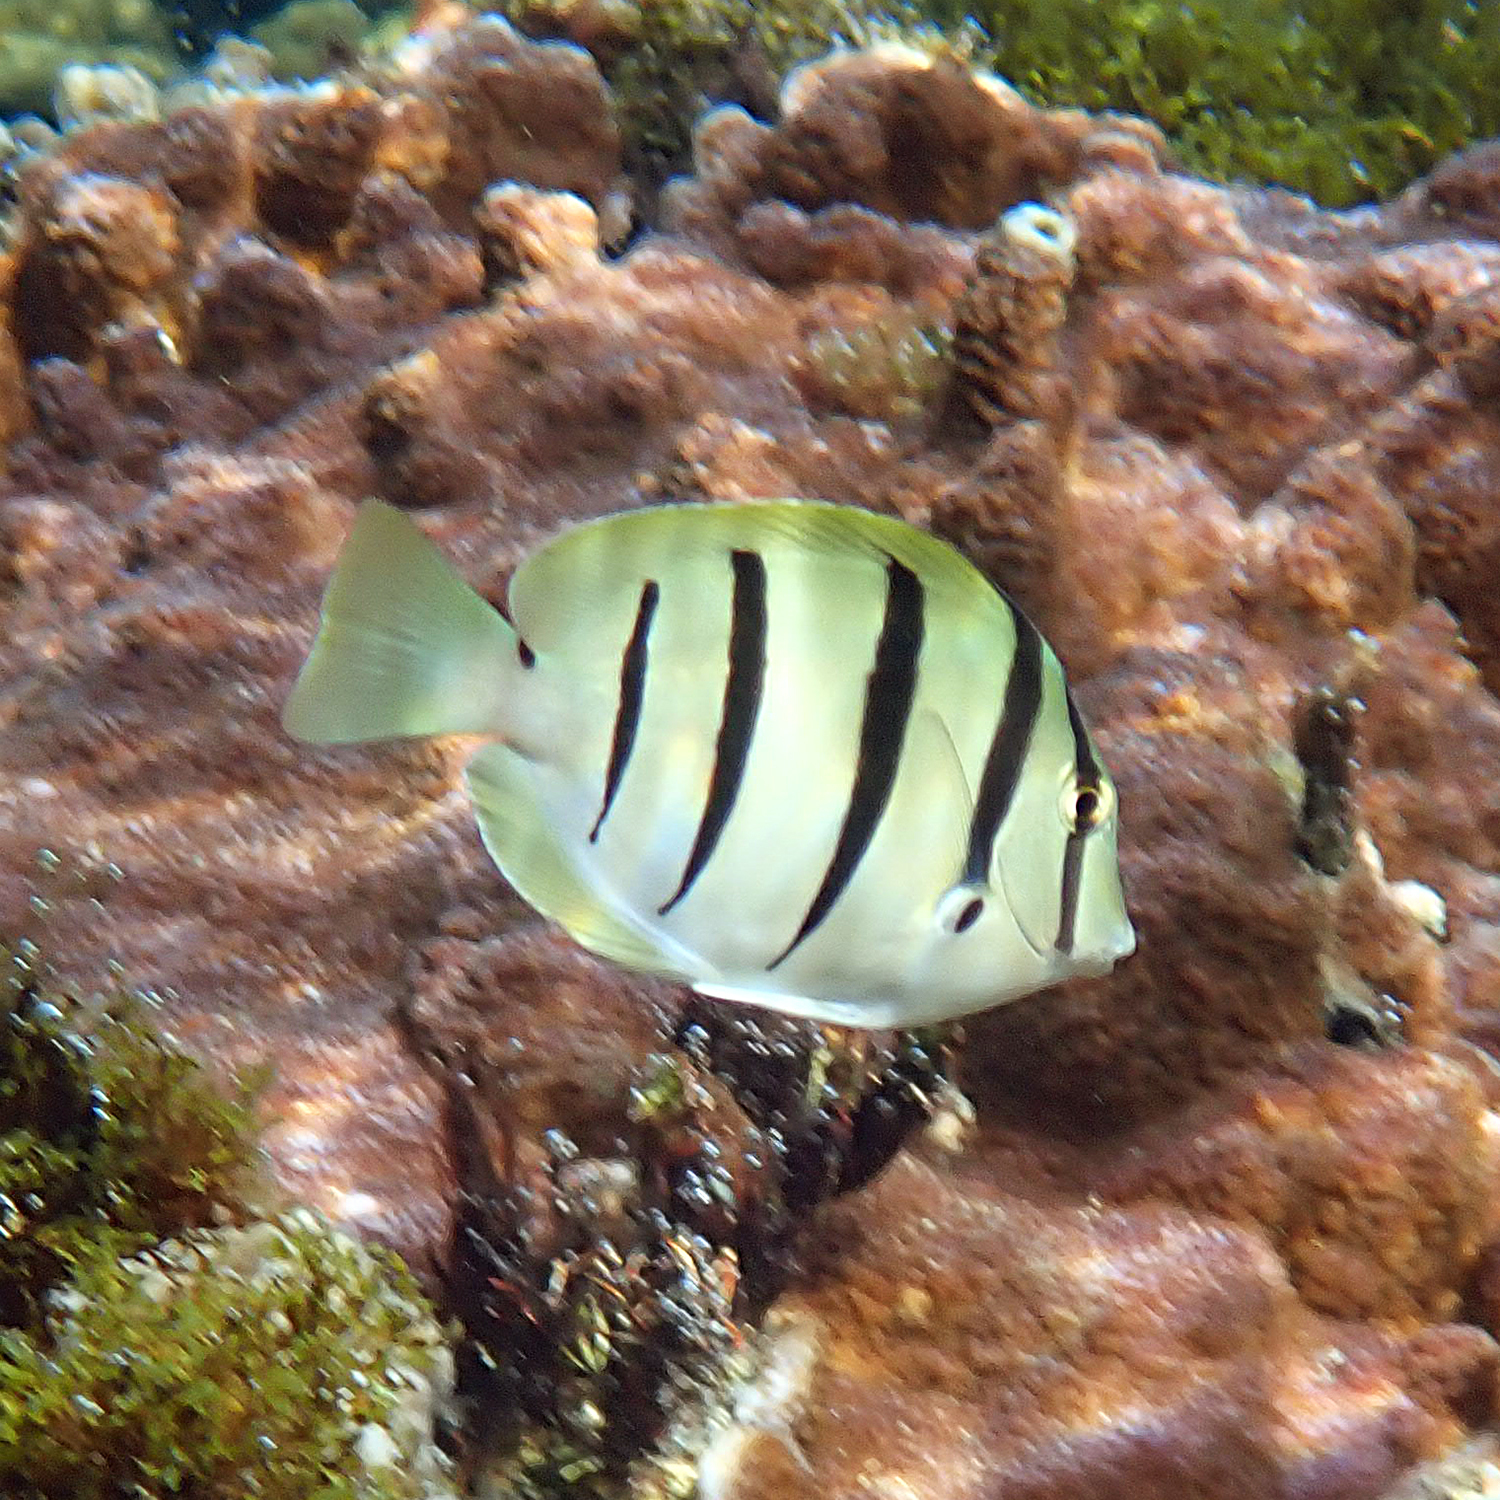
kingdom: Animalia
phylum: Chordata
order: Perciformes
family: Acanthuridae
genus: Acanthurus
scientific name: Acanthurus triostegus
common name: Convict surgeonfish
